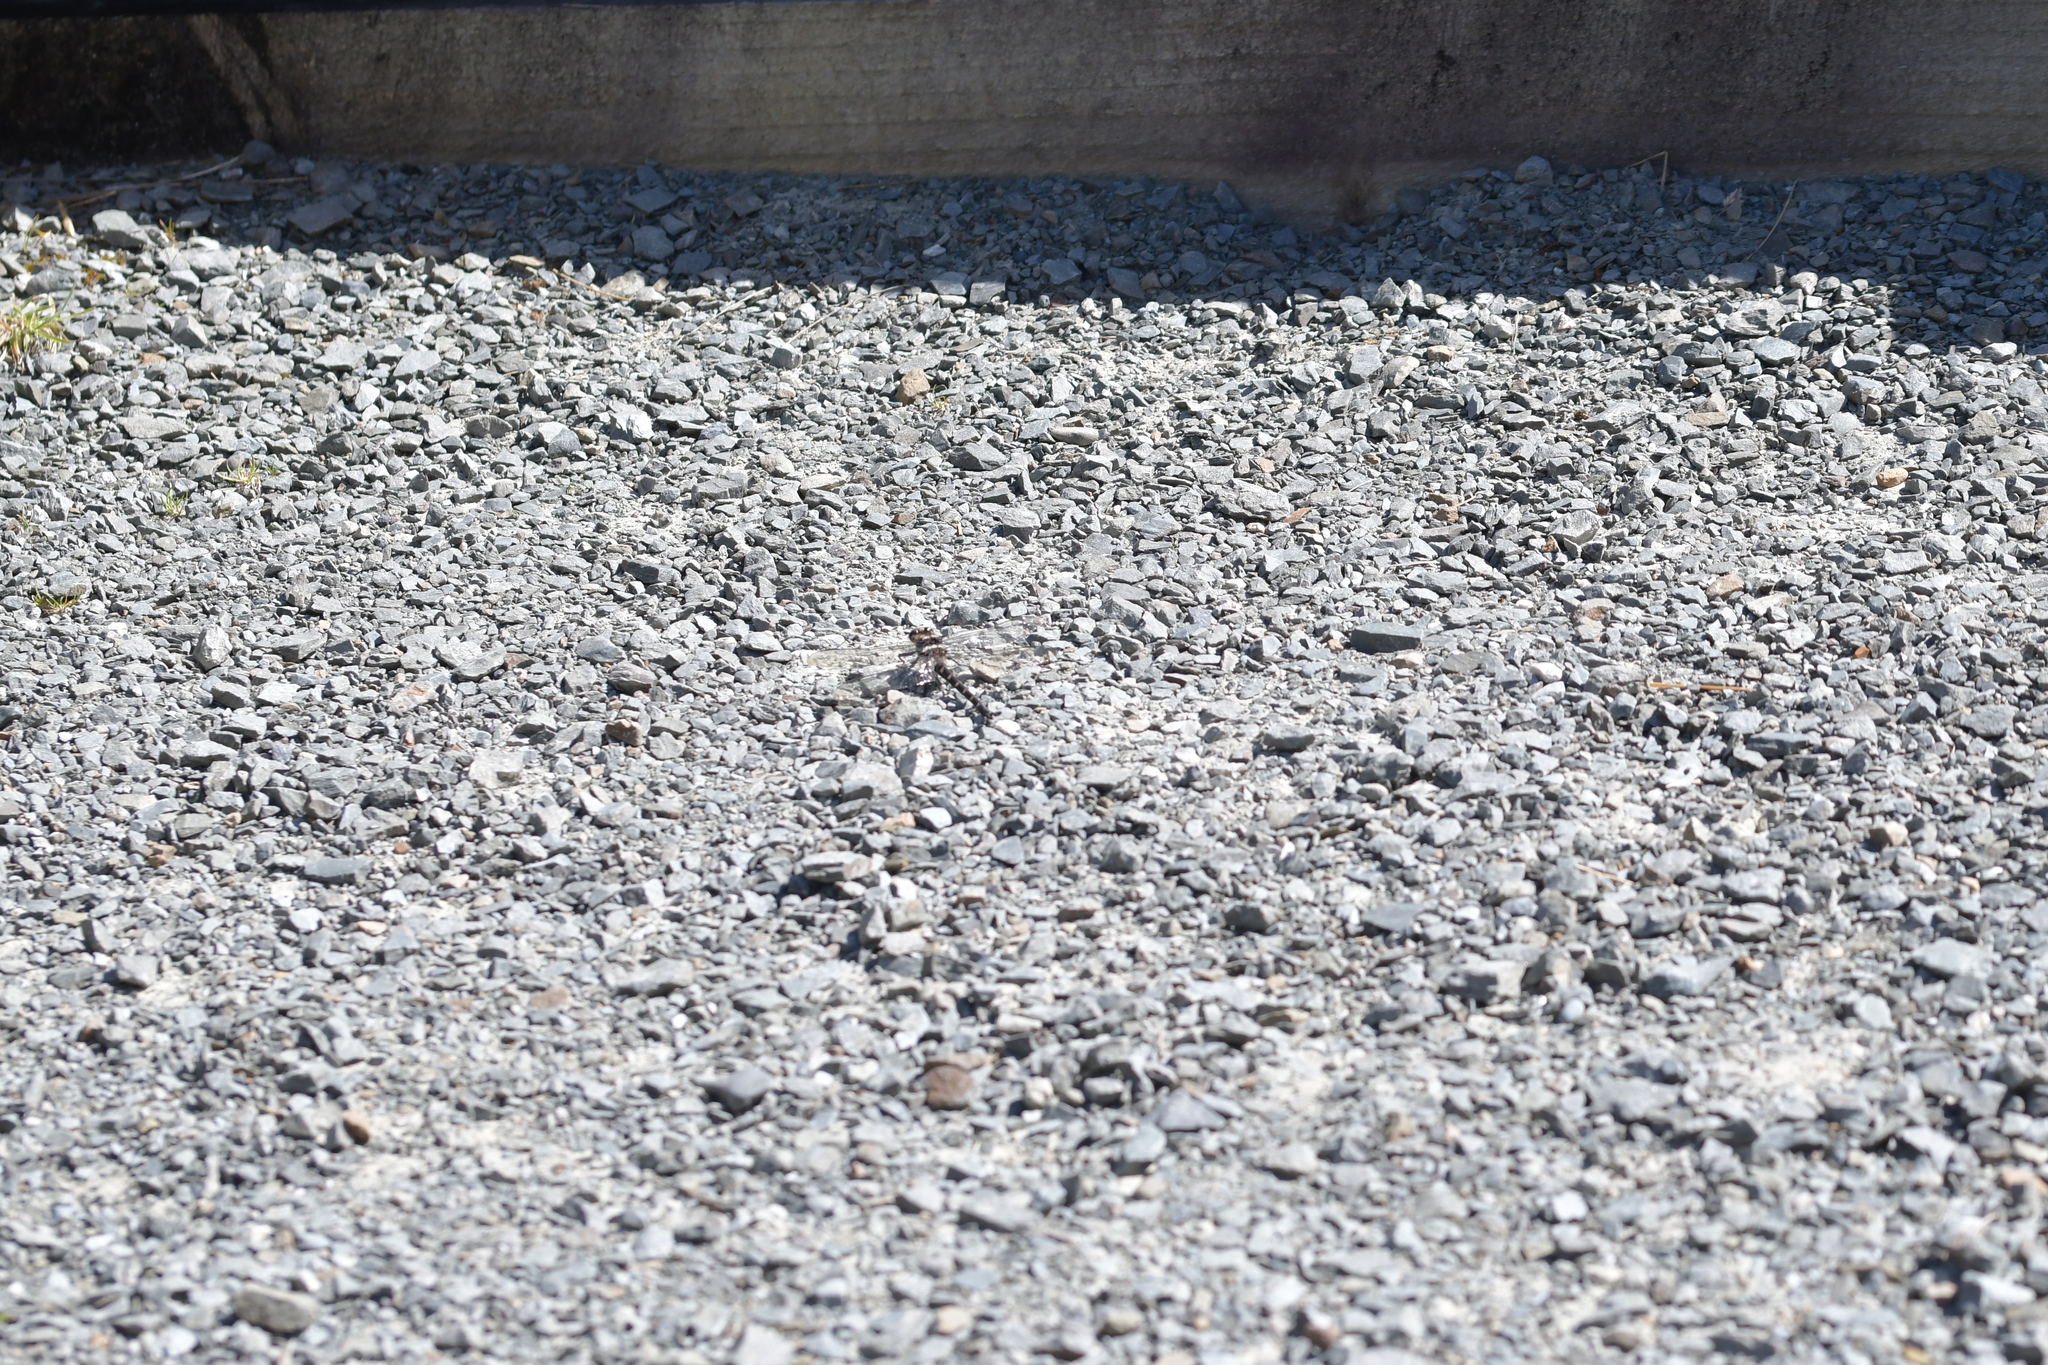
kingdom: Animalia
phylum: Arthropoda
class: Insecta
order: Odonata
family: Petaluridae
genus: Uropetala
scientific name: Uropetala chiltoni
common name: Mountain giant dragonfly
